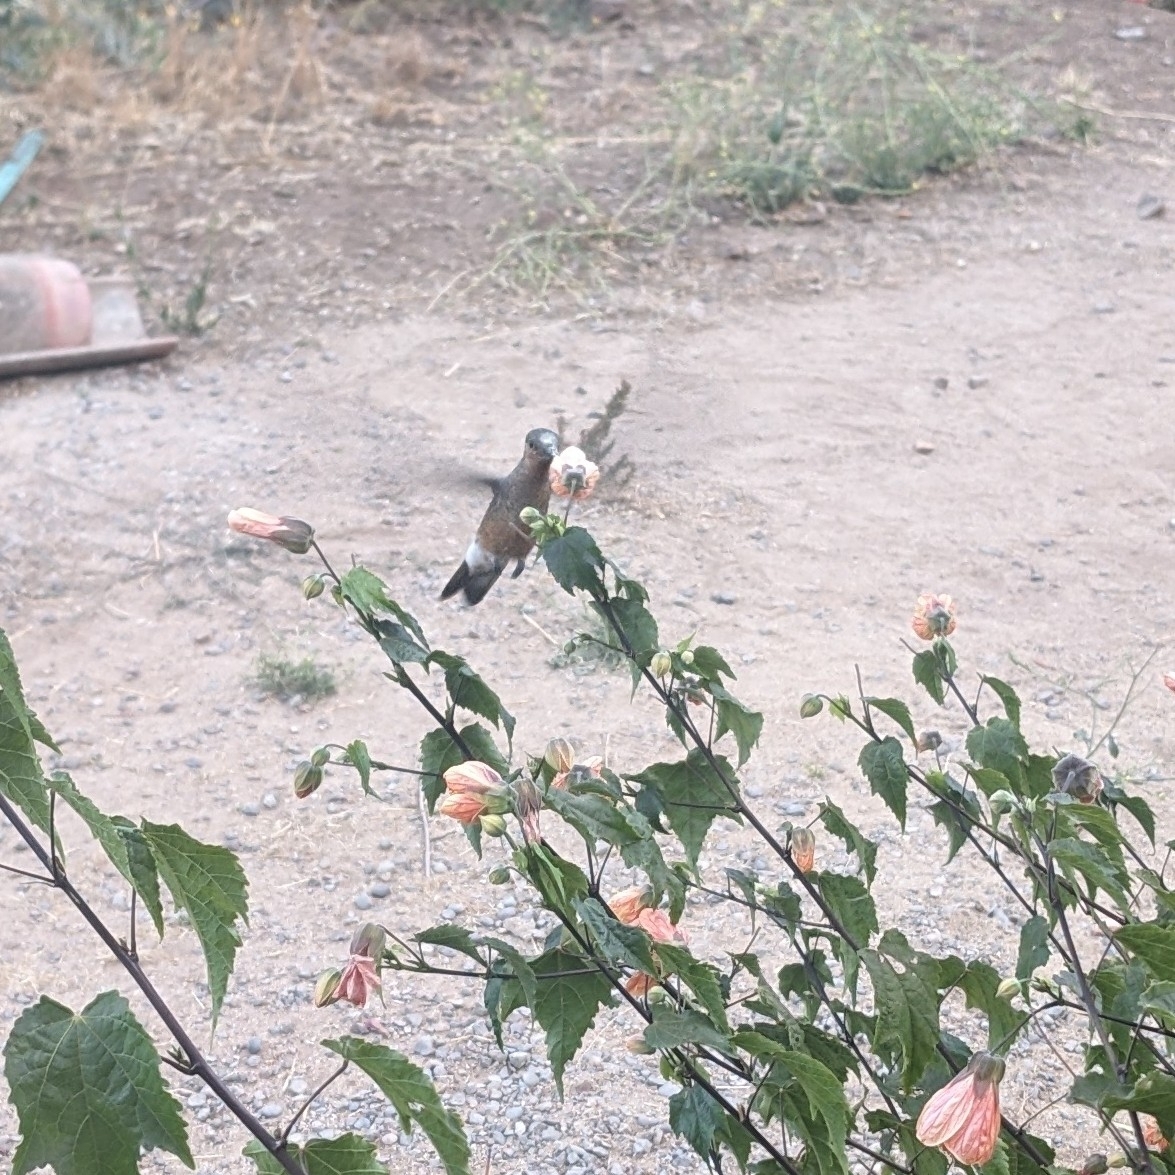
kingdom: Animalia
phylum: Chordata
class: Aves
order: Apodiformes
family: Trochilidae
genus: Patagona
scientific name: Patagona gigas
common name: Giant hummingbird
